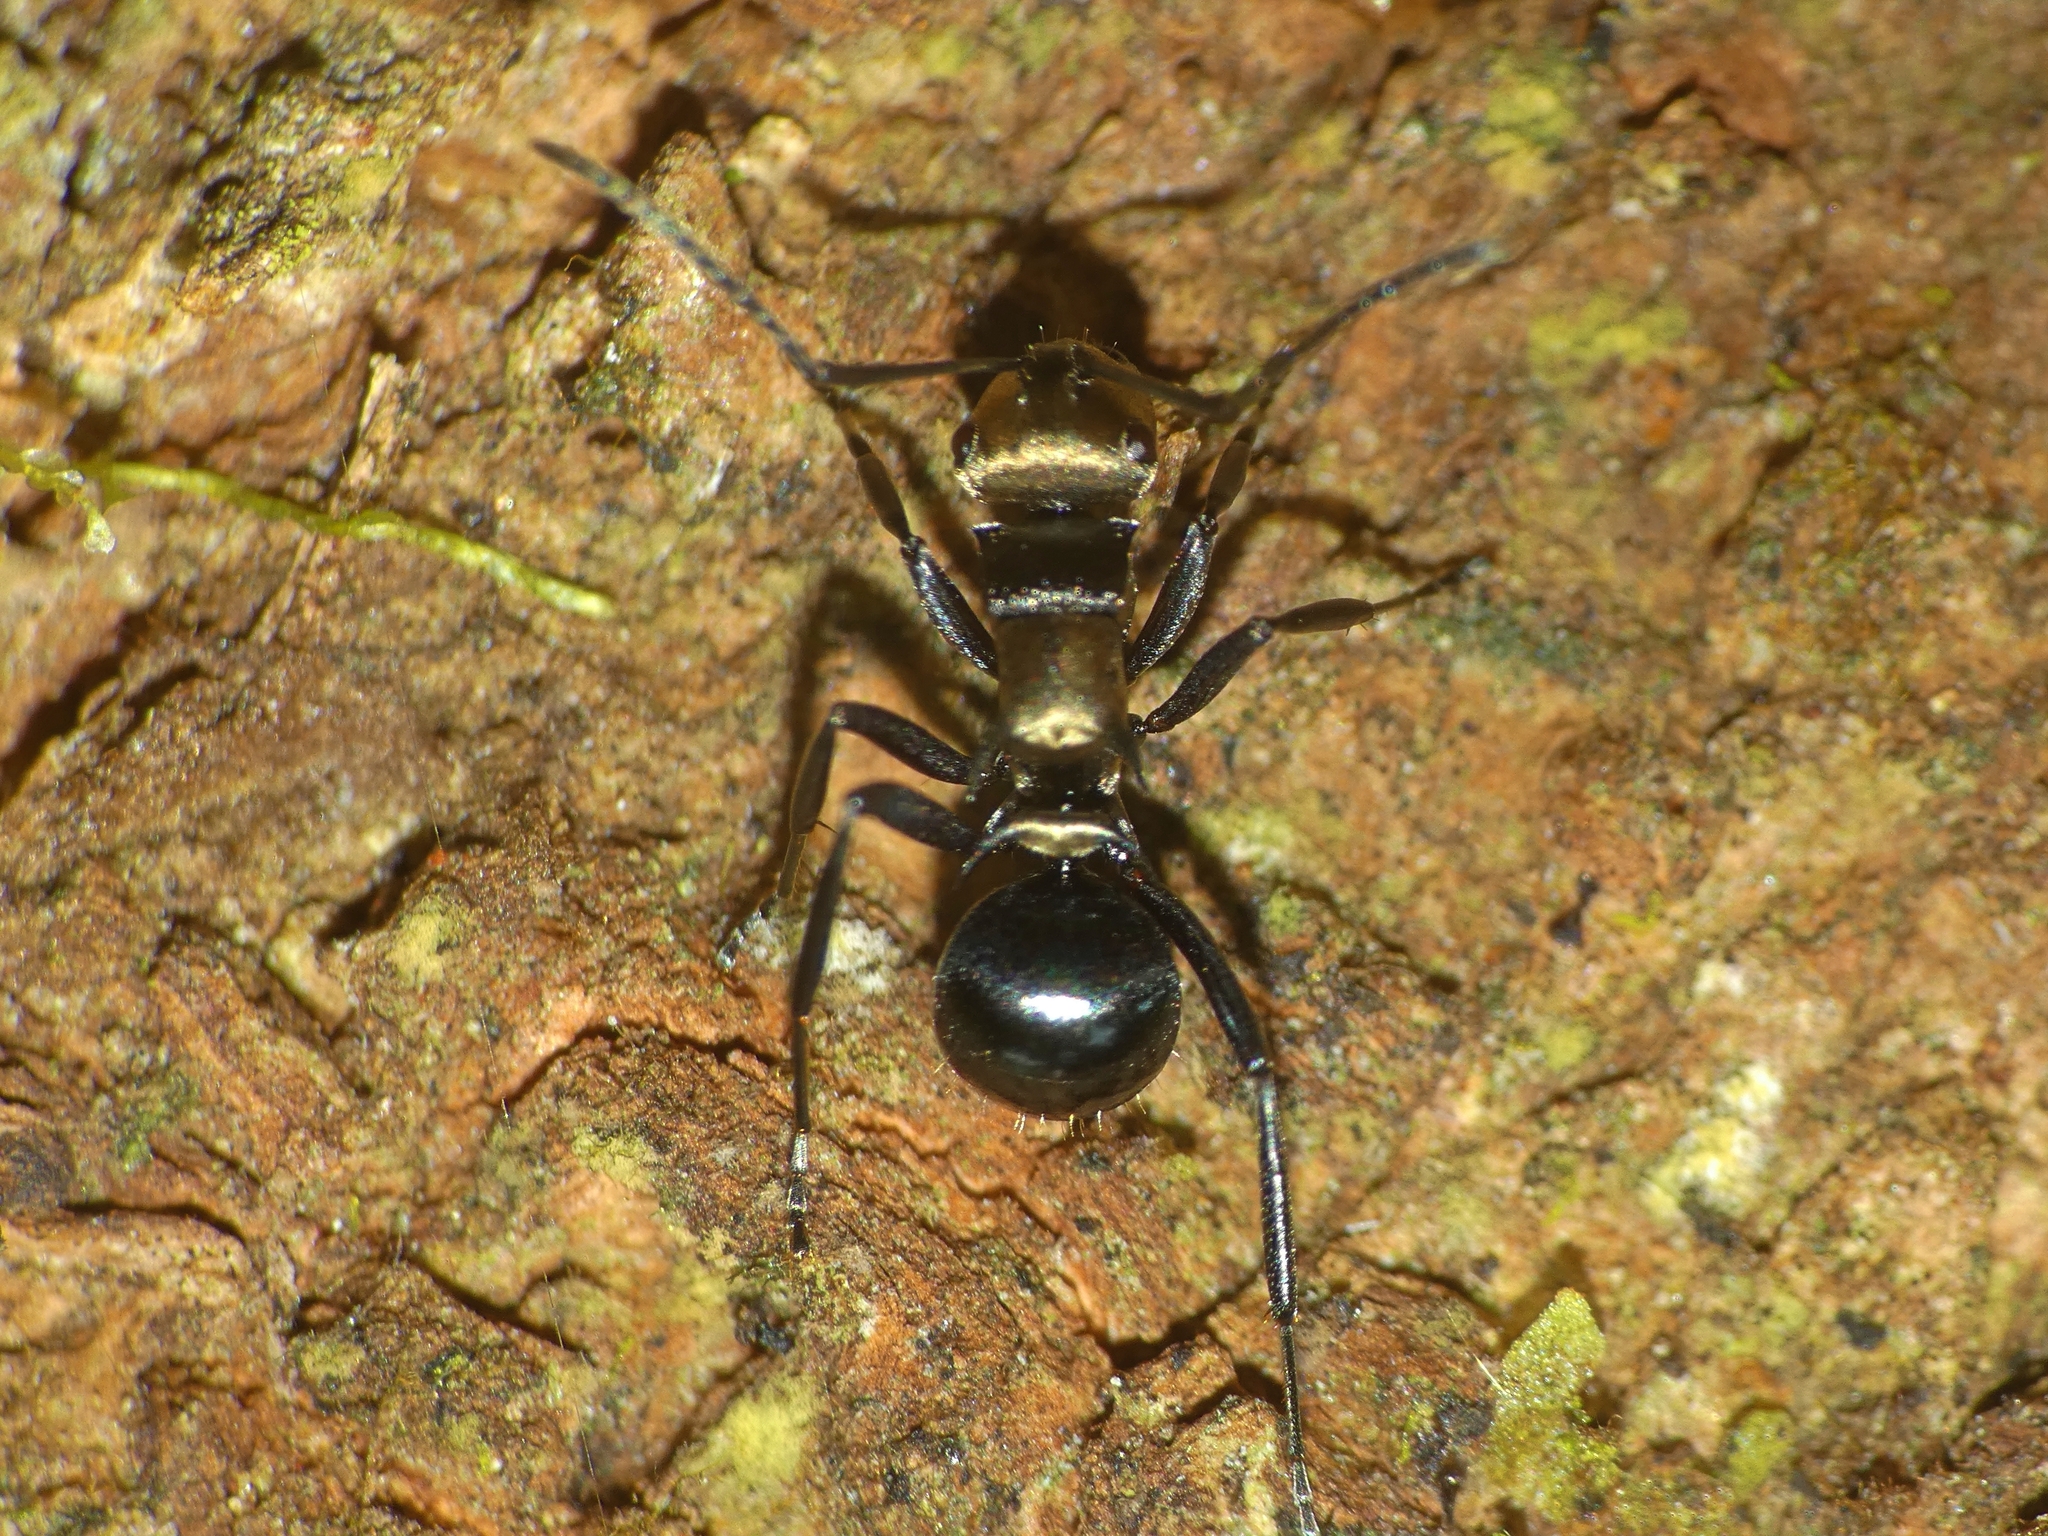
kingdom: Animalia
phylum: Arthropoda
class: Insecta
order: Hymenoptera
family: Formicidae
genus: Polyrhachis
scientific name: Polyrhachis cleopatra
